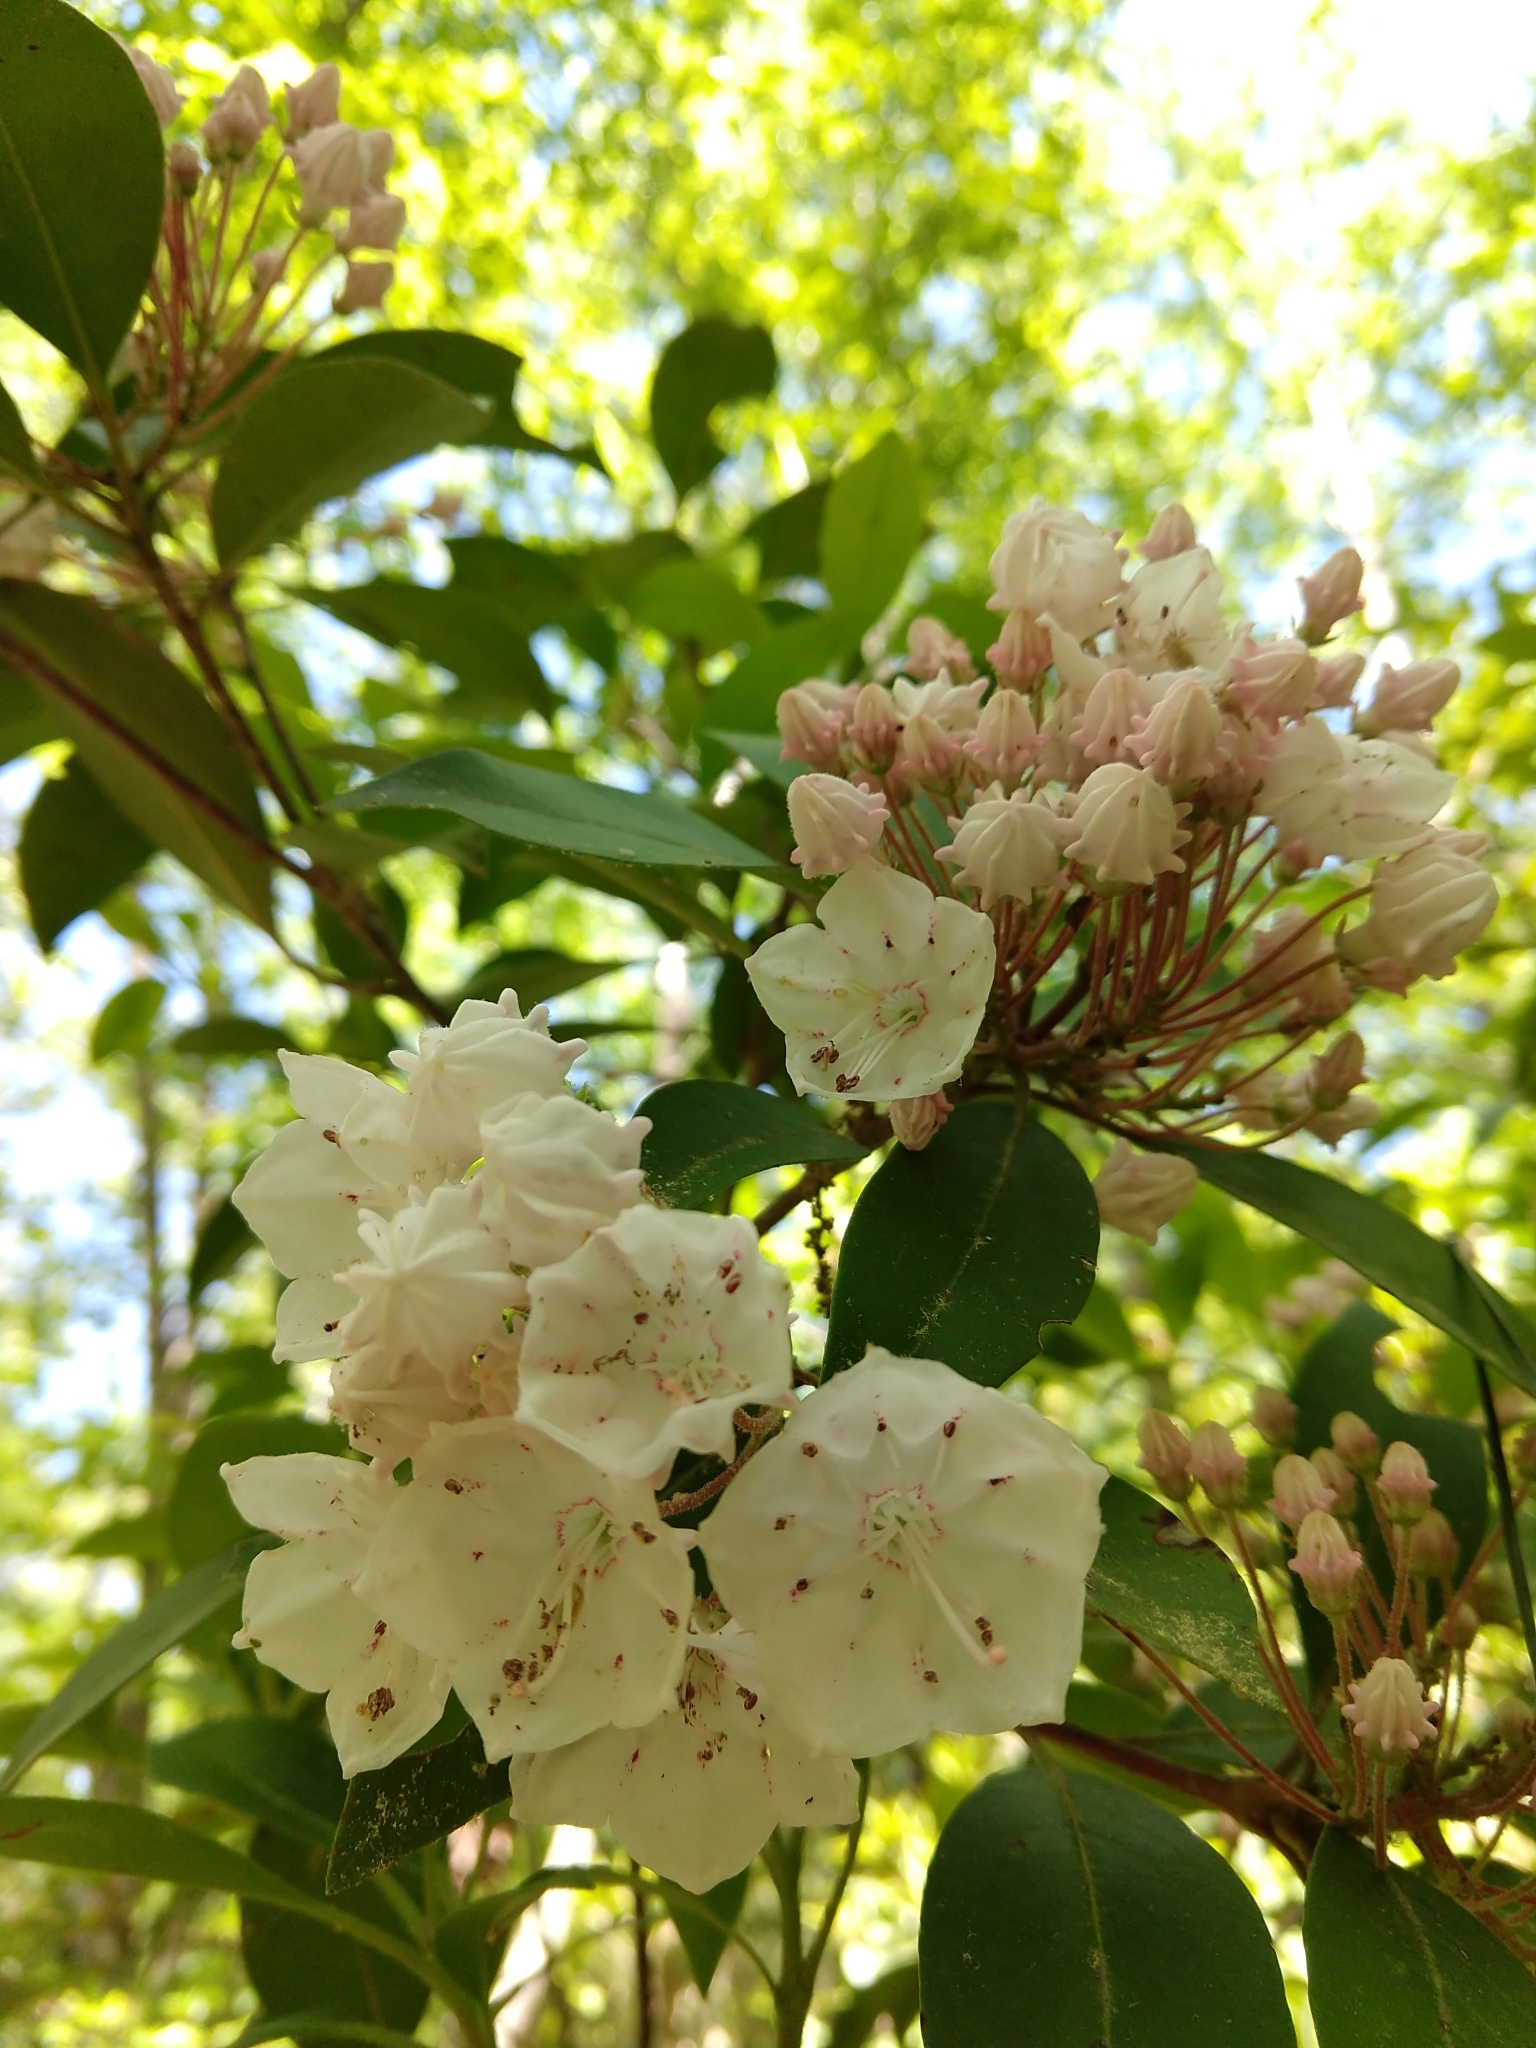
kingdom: Plantae
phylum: Tracheophyta
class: Magnoliopsida
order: Ericales
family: Ericaceae
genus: Kalmia
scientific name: Kalmia latifolia
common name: Mountain-laurel
